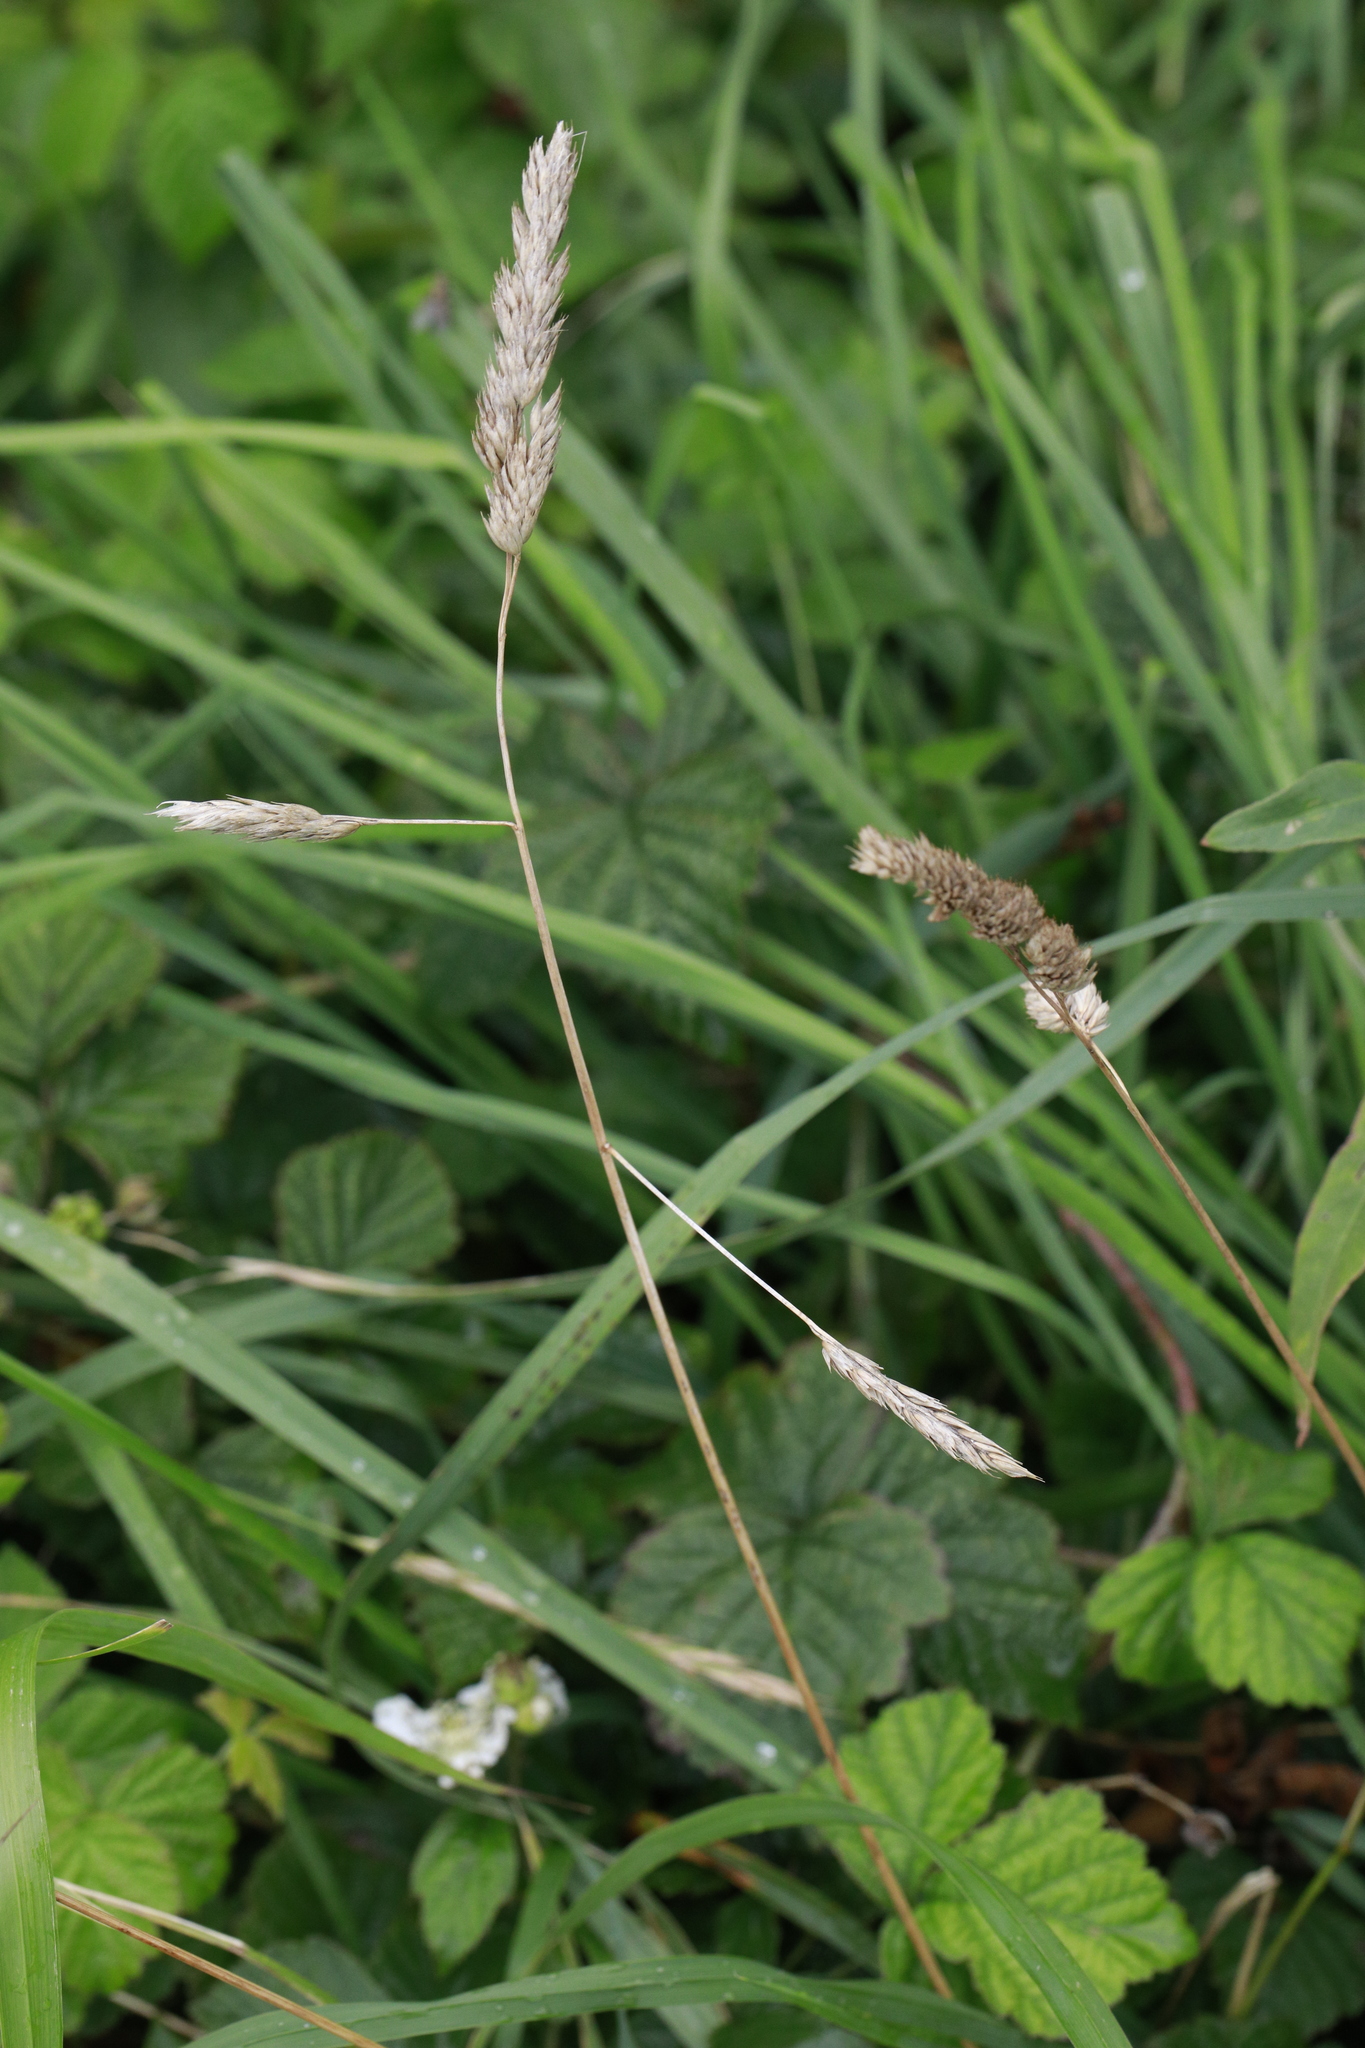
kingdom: Plantae
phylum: Tracheophyta
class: Liliopsida
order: Poales
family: Poaceae
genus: Dactylis
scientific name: Dactylis glomerata
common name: Orchardgrass
